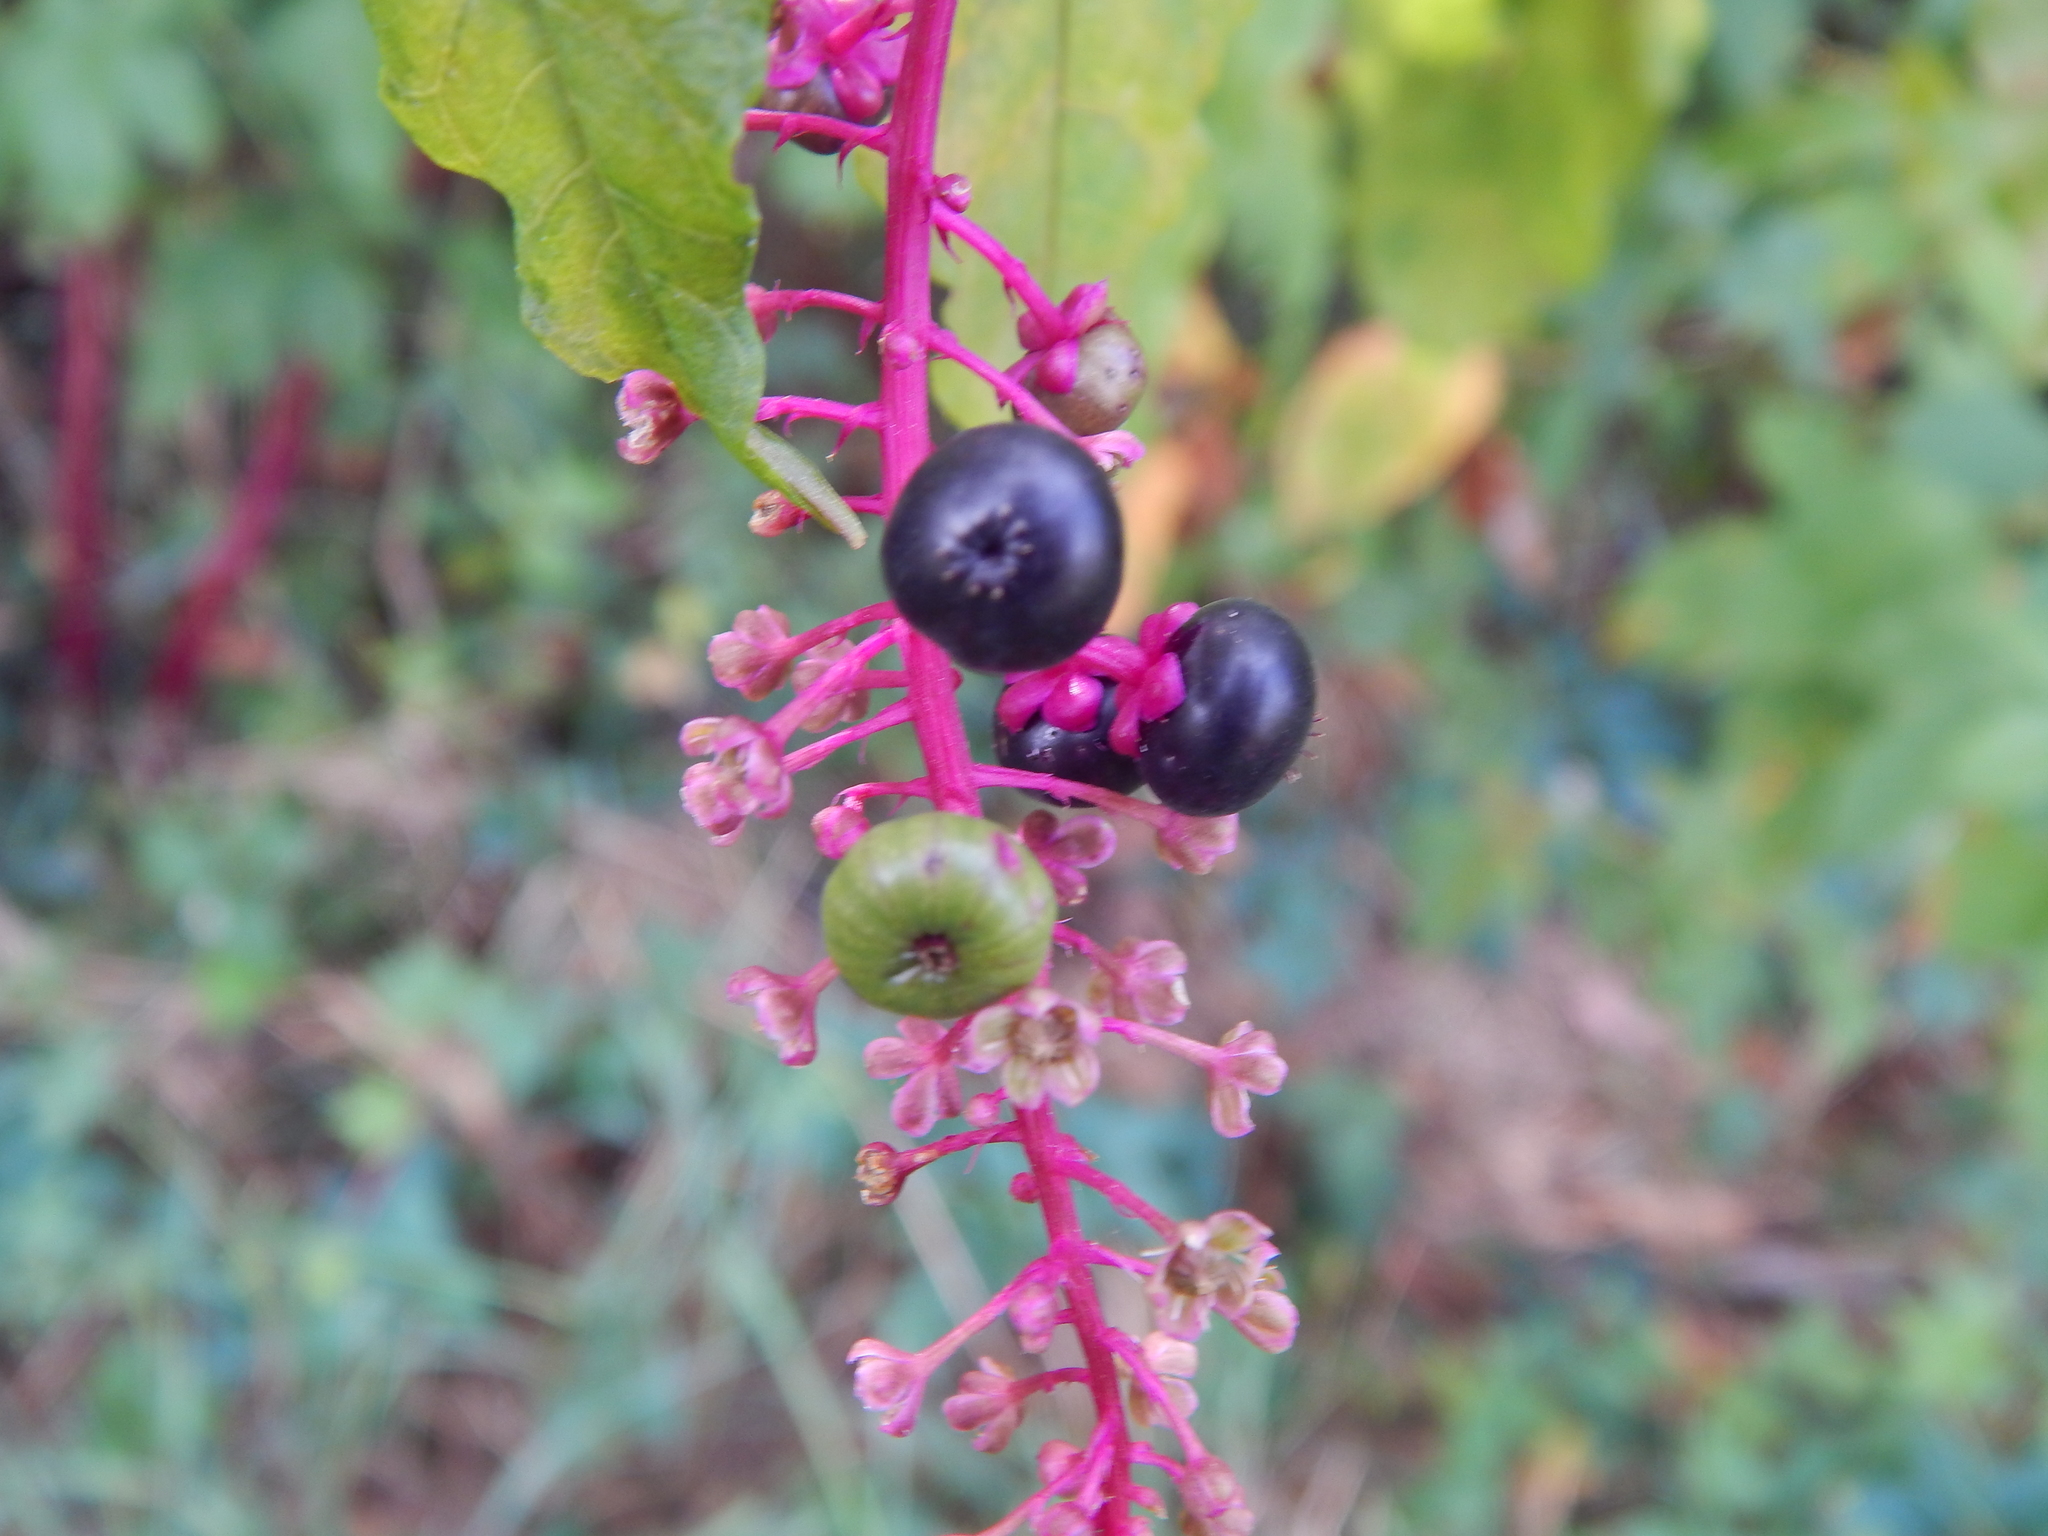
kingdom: Plantae
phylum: Tracheophyta
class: Magnoliopsida
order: Caryophyllales
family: Phytolaccaceae
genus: Phytolacca
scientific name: Phytolacca americana
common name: American pokeweed
